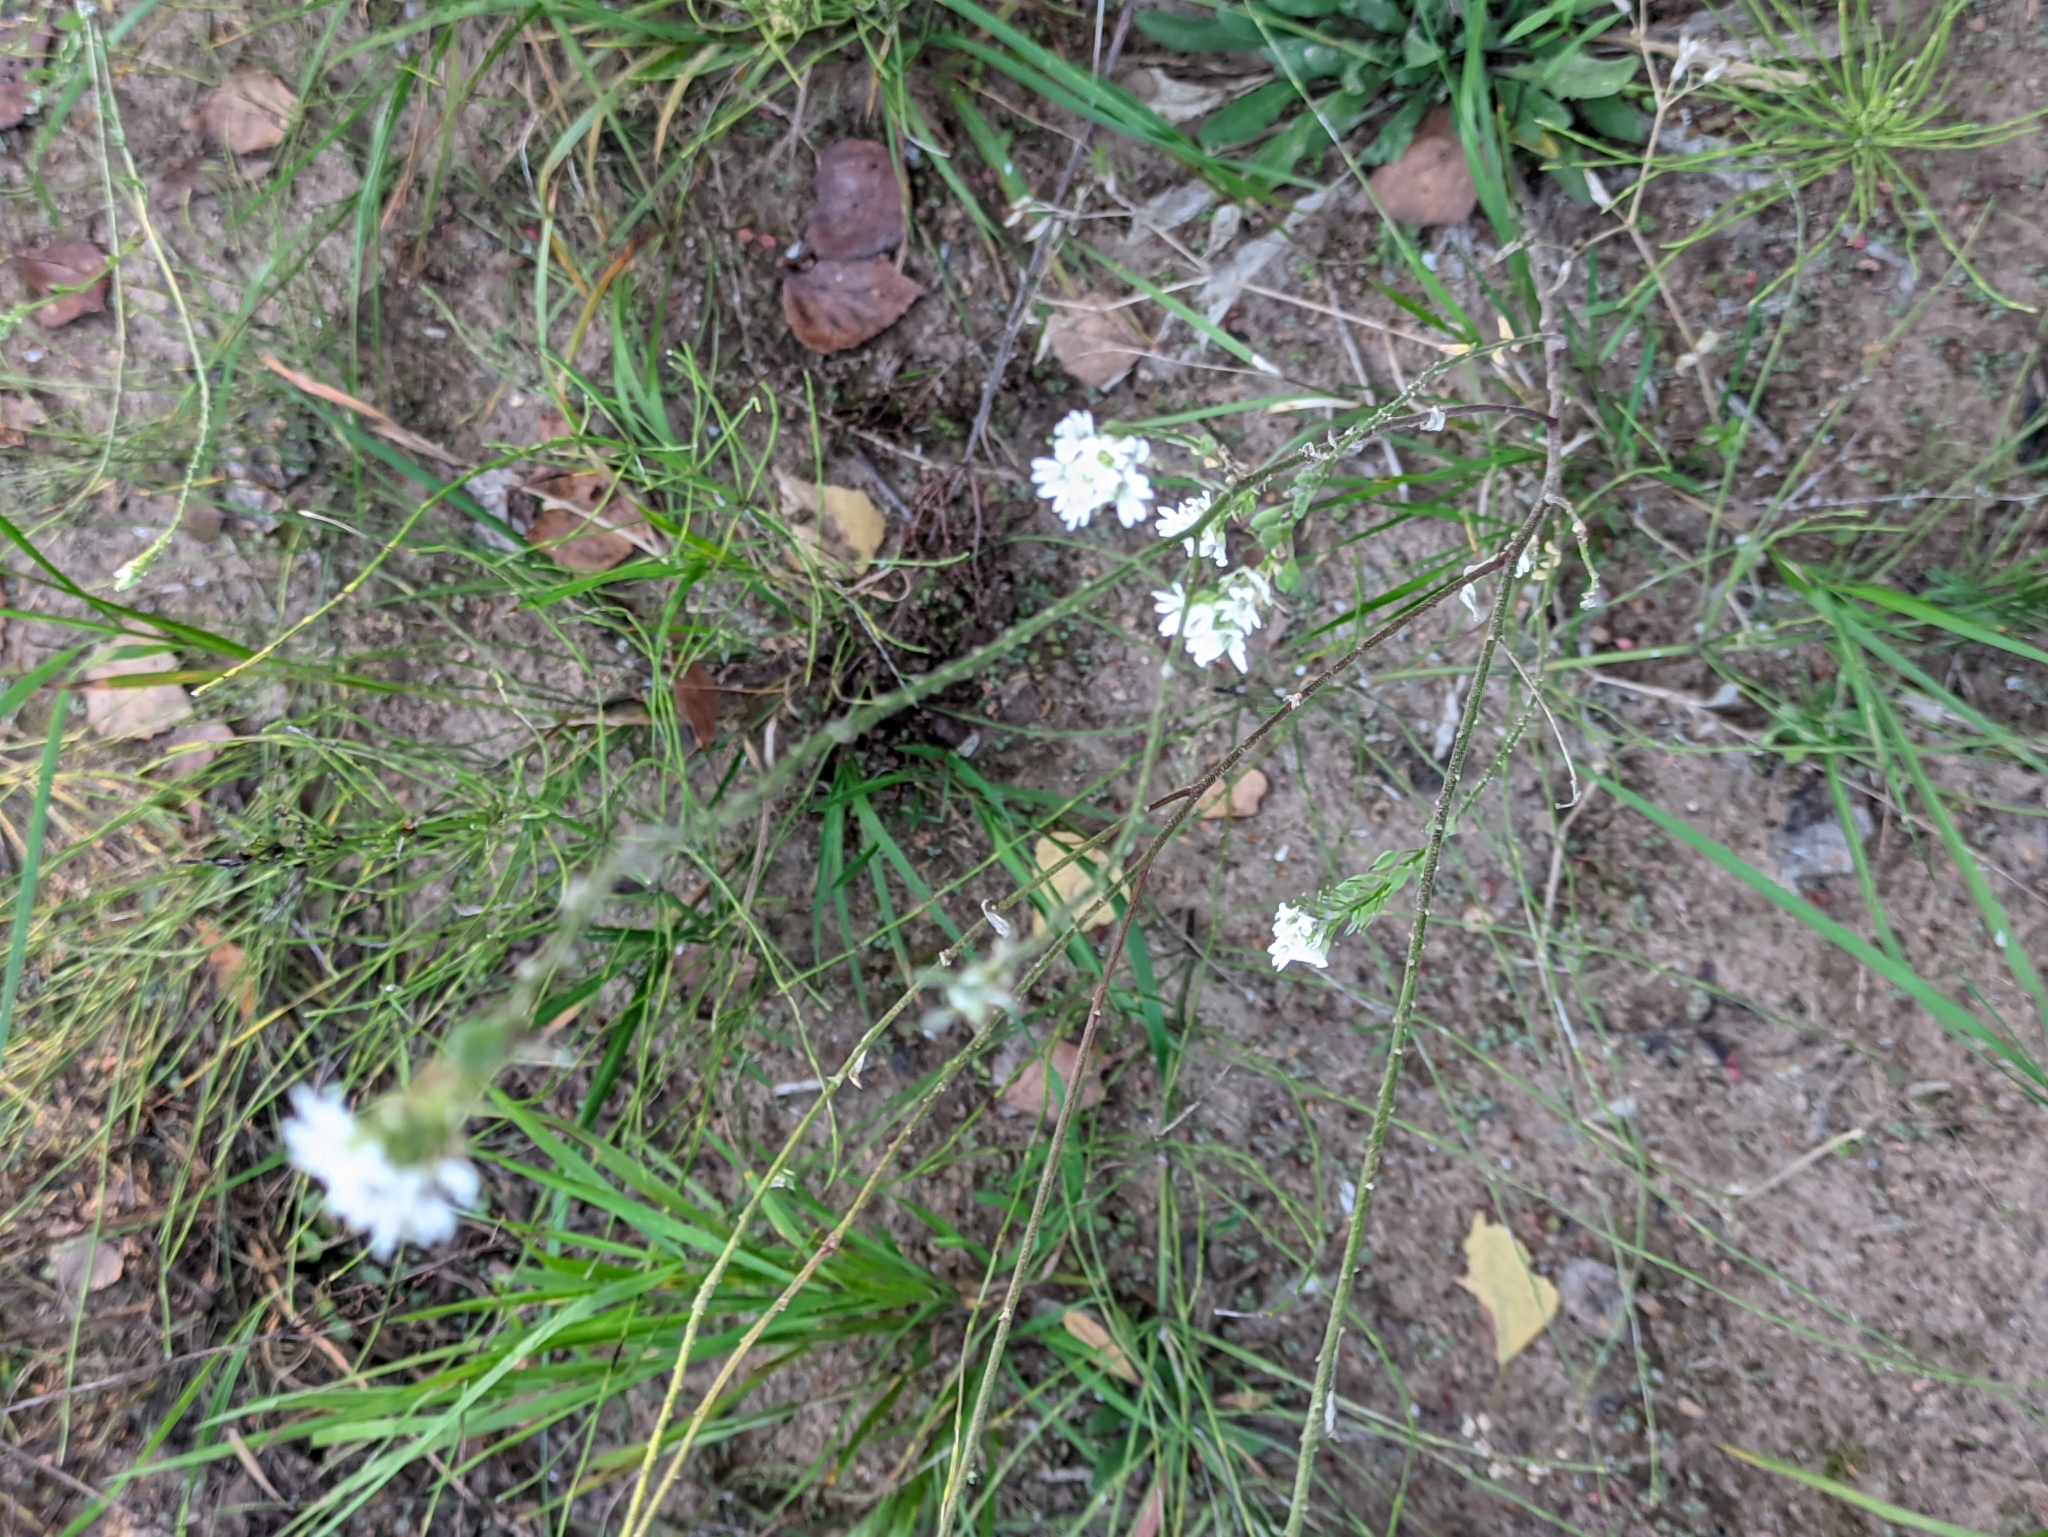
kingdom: Plantae
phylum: Tracheophyta
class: Magnoliopsida
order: Brassicales
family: Brassicaceae
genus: Berteroa
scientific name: Berteroa incana
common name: Hoary alison
